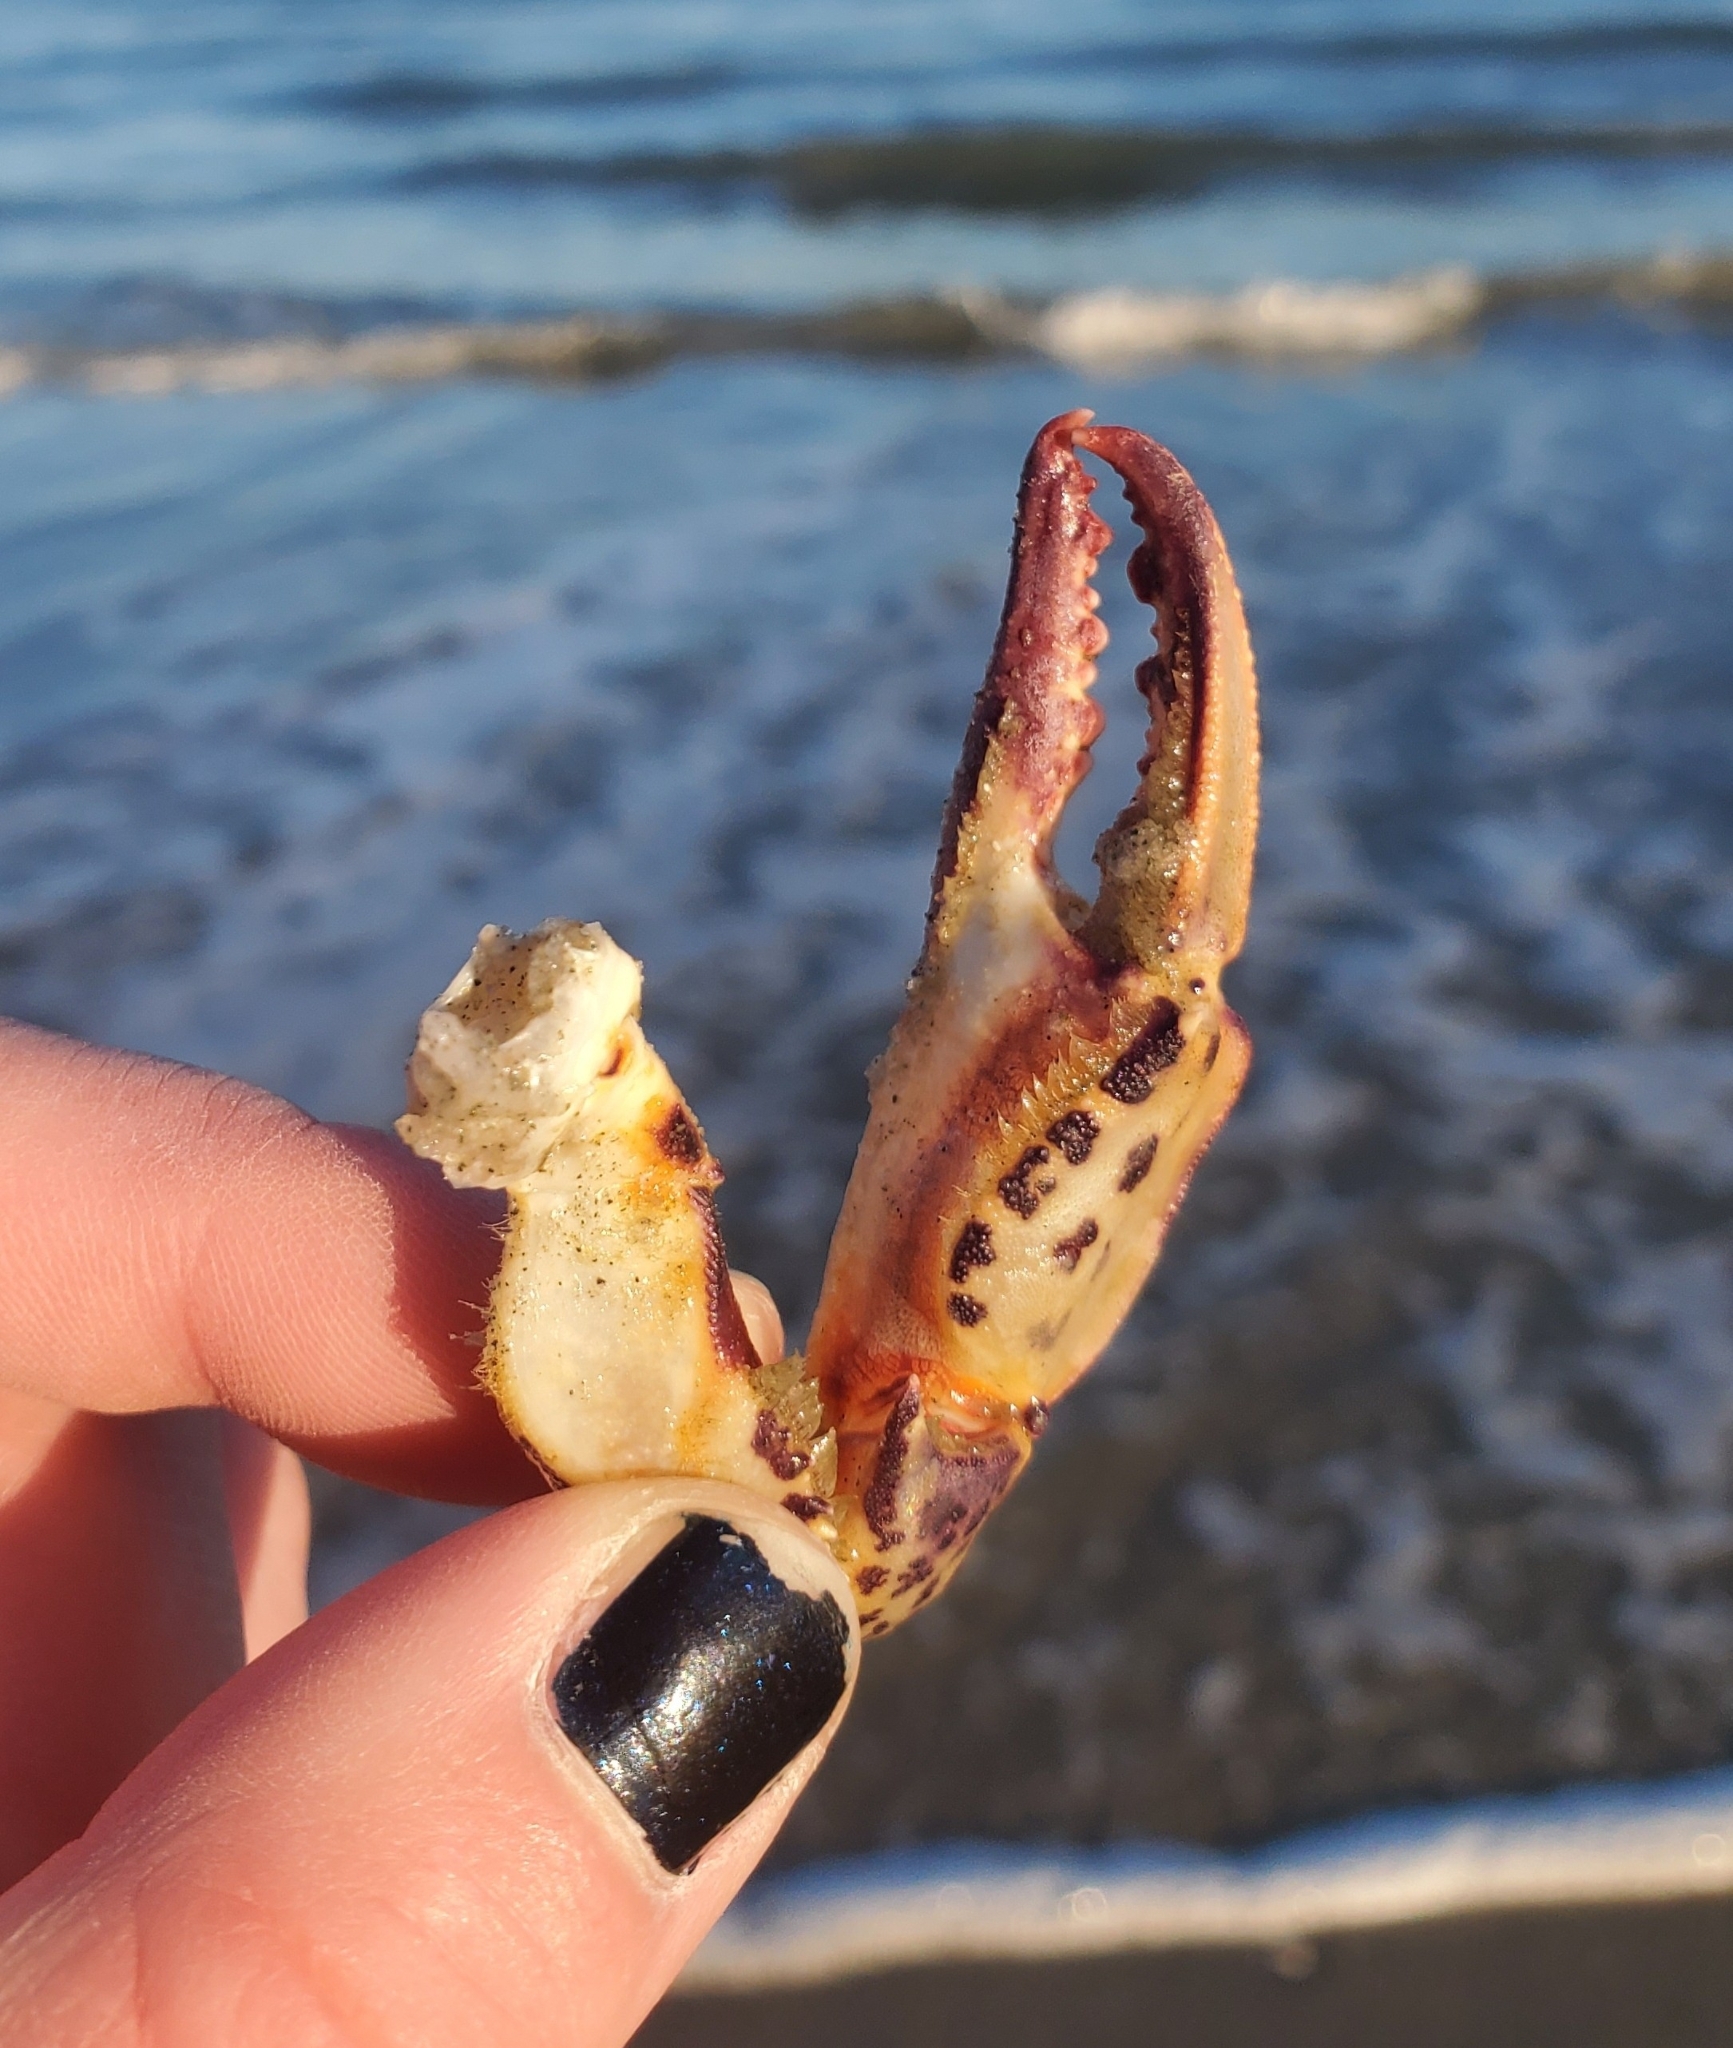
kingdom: Animalia
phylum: Arthropoda
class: Malacostraca
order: Decapoda
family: Ovalipidae
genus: Ovalipes
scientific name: Ovalipes ocellatus
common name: Lady crab
